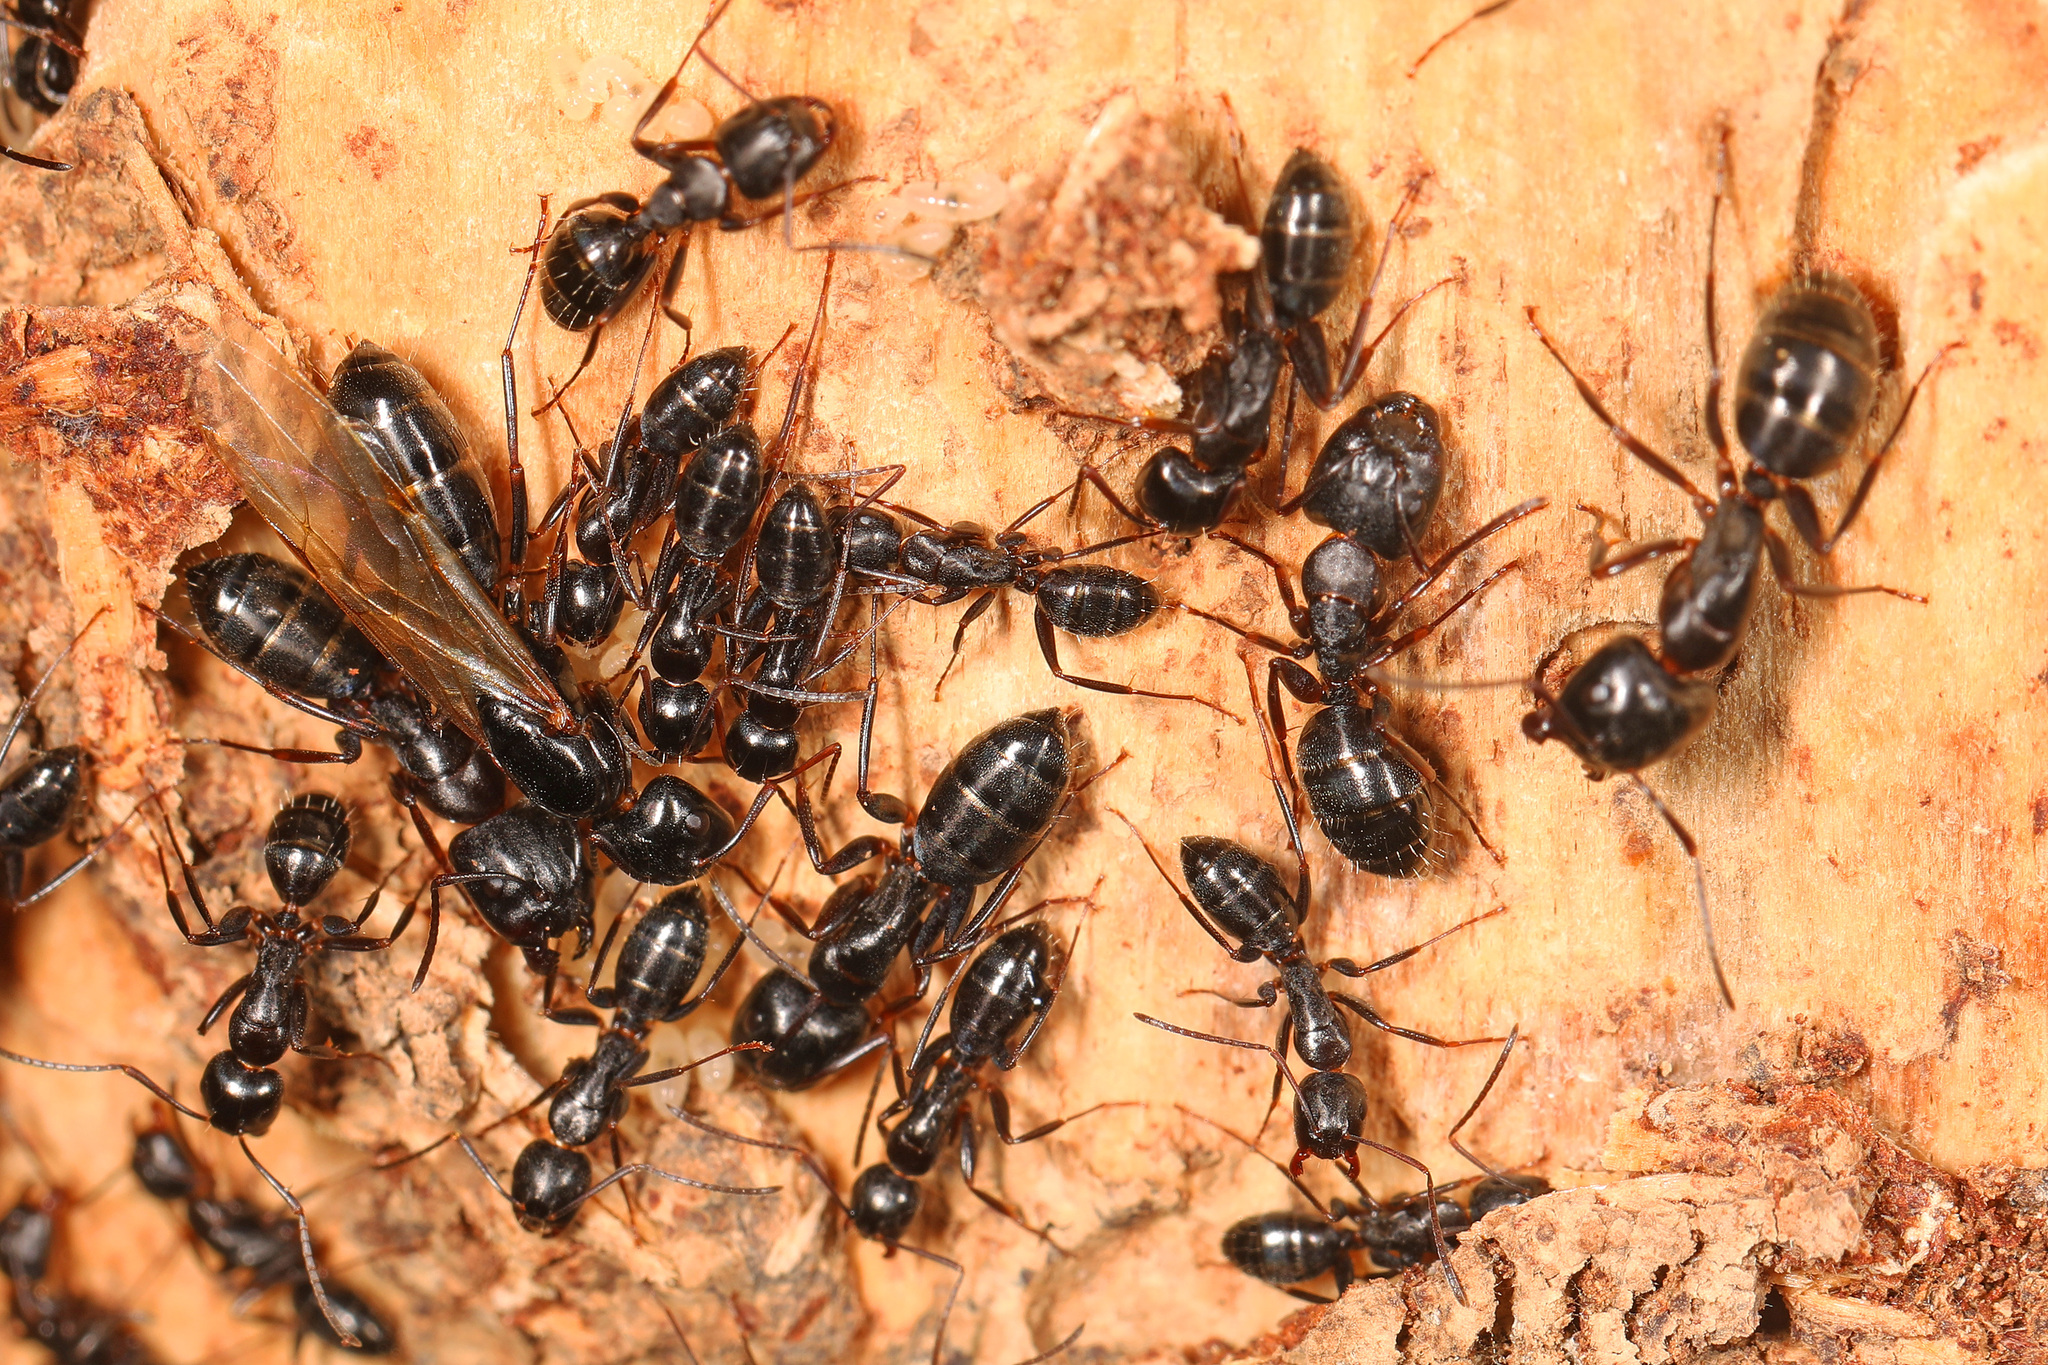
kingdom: Animalia
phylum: Arthropoda
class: Insecta
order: Hymenoptera
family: Formicidae
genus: Camponotus
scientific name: Camponotus nearcticus
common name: Smaller carpenter ant
